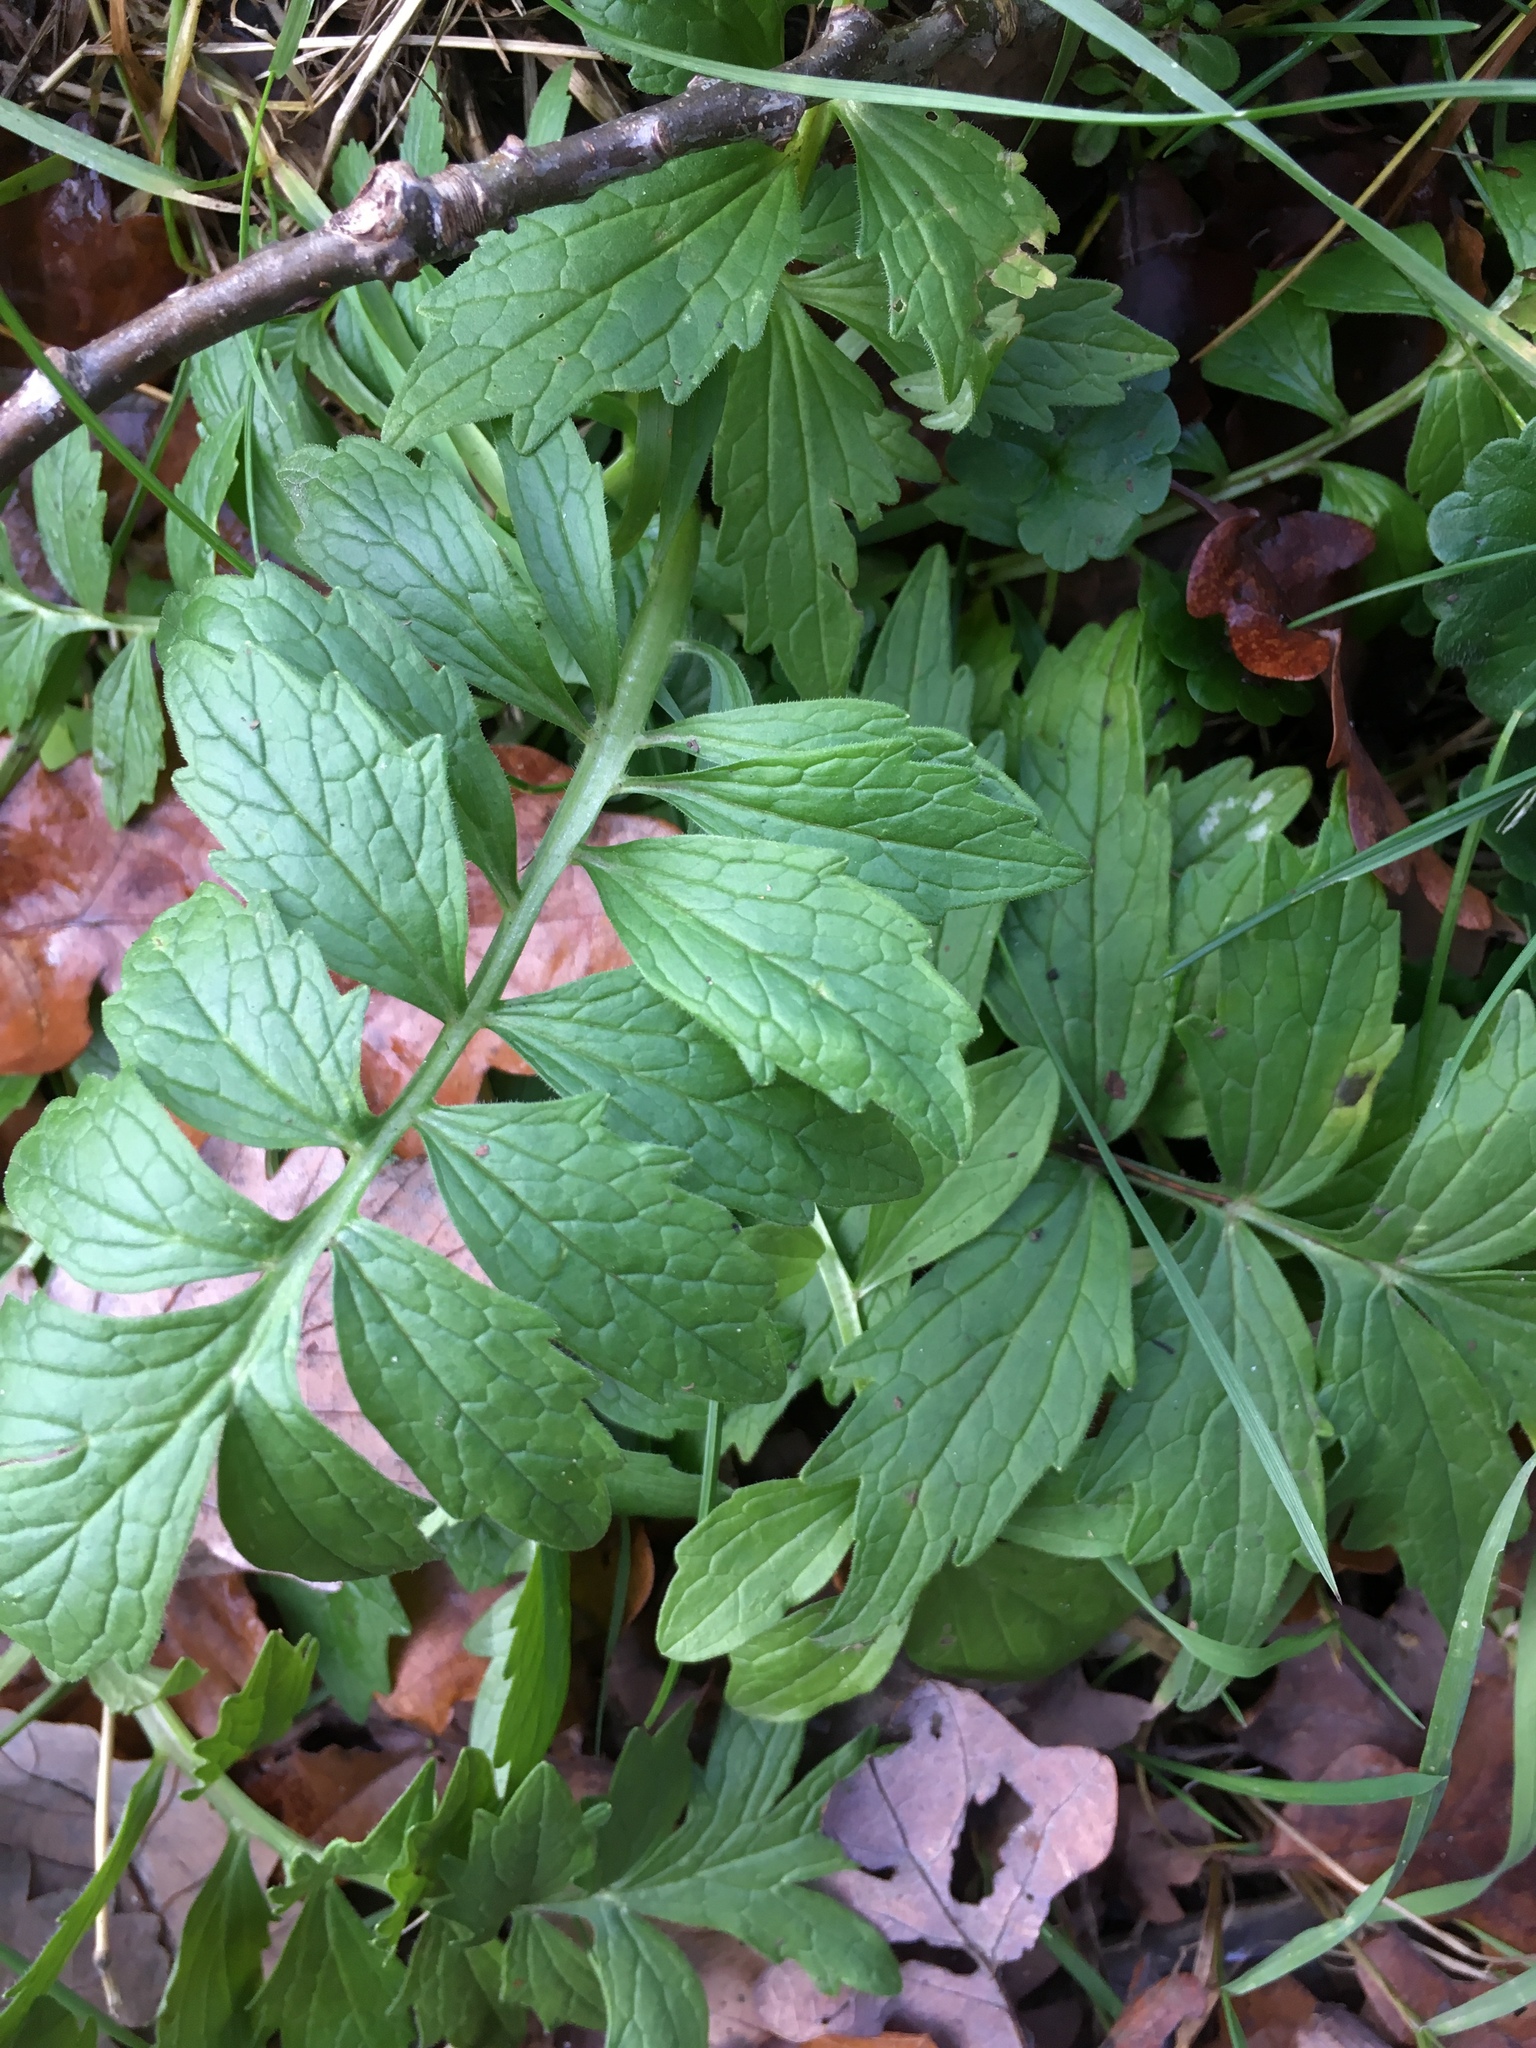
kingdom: Plantae
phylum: Tracheophyta
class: Magnoliopsida
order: Dipsacales
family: Caprifoliaceae
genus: Valeriana
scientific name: Valeriana officinalis
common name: Common valerian
